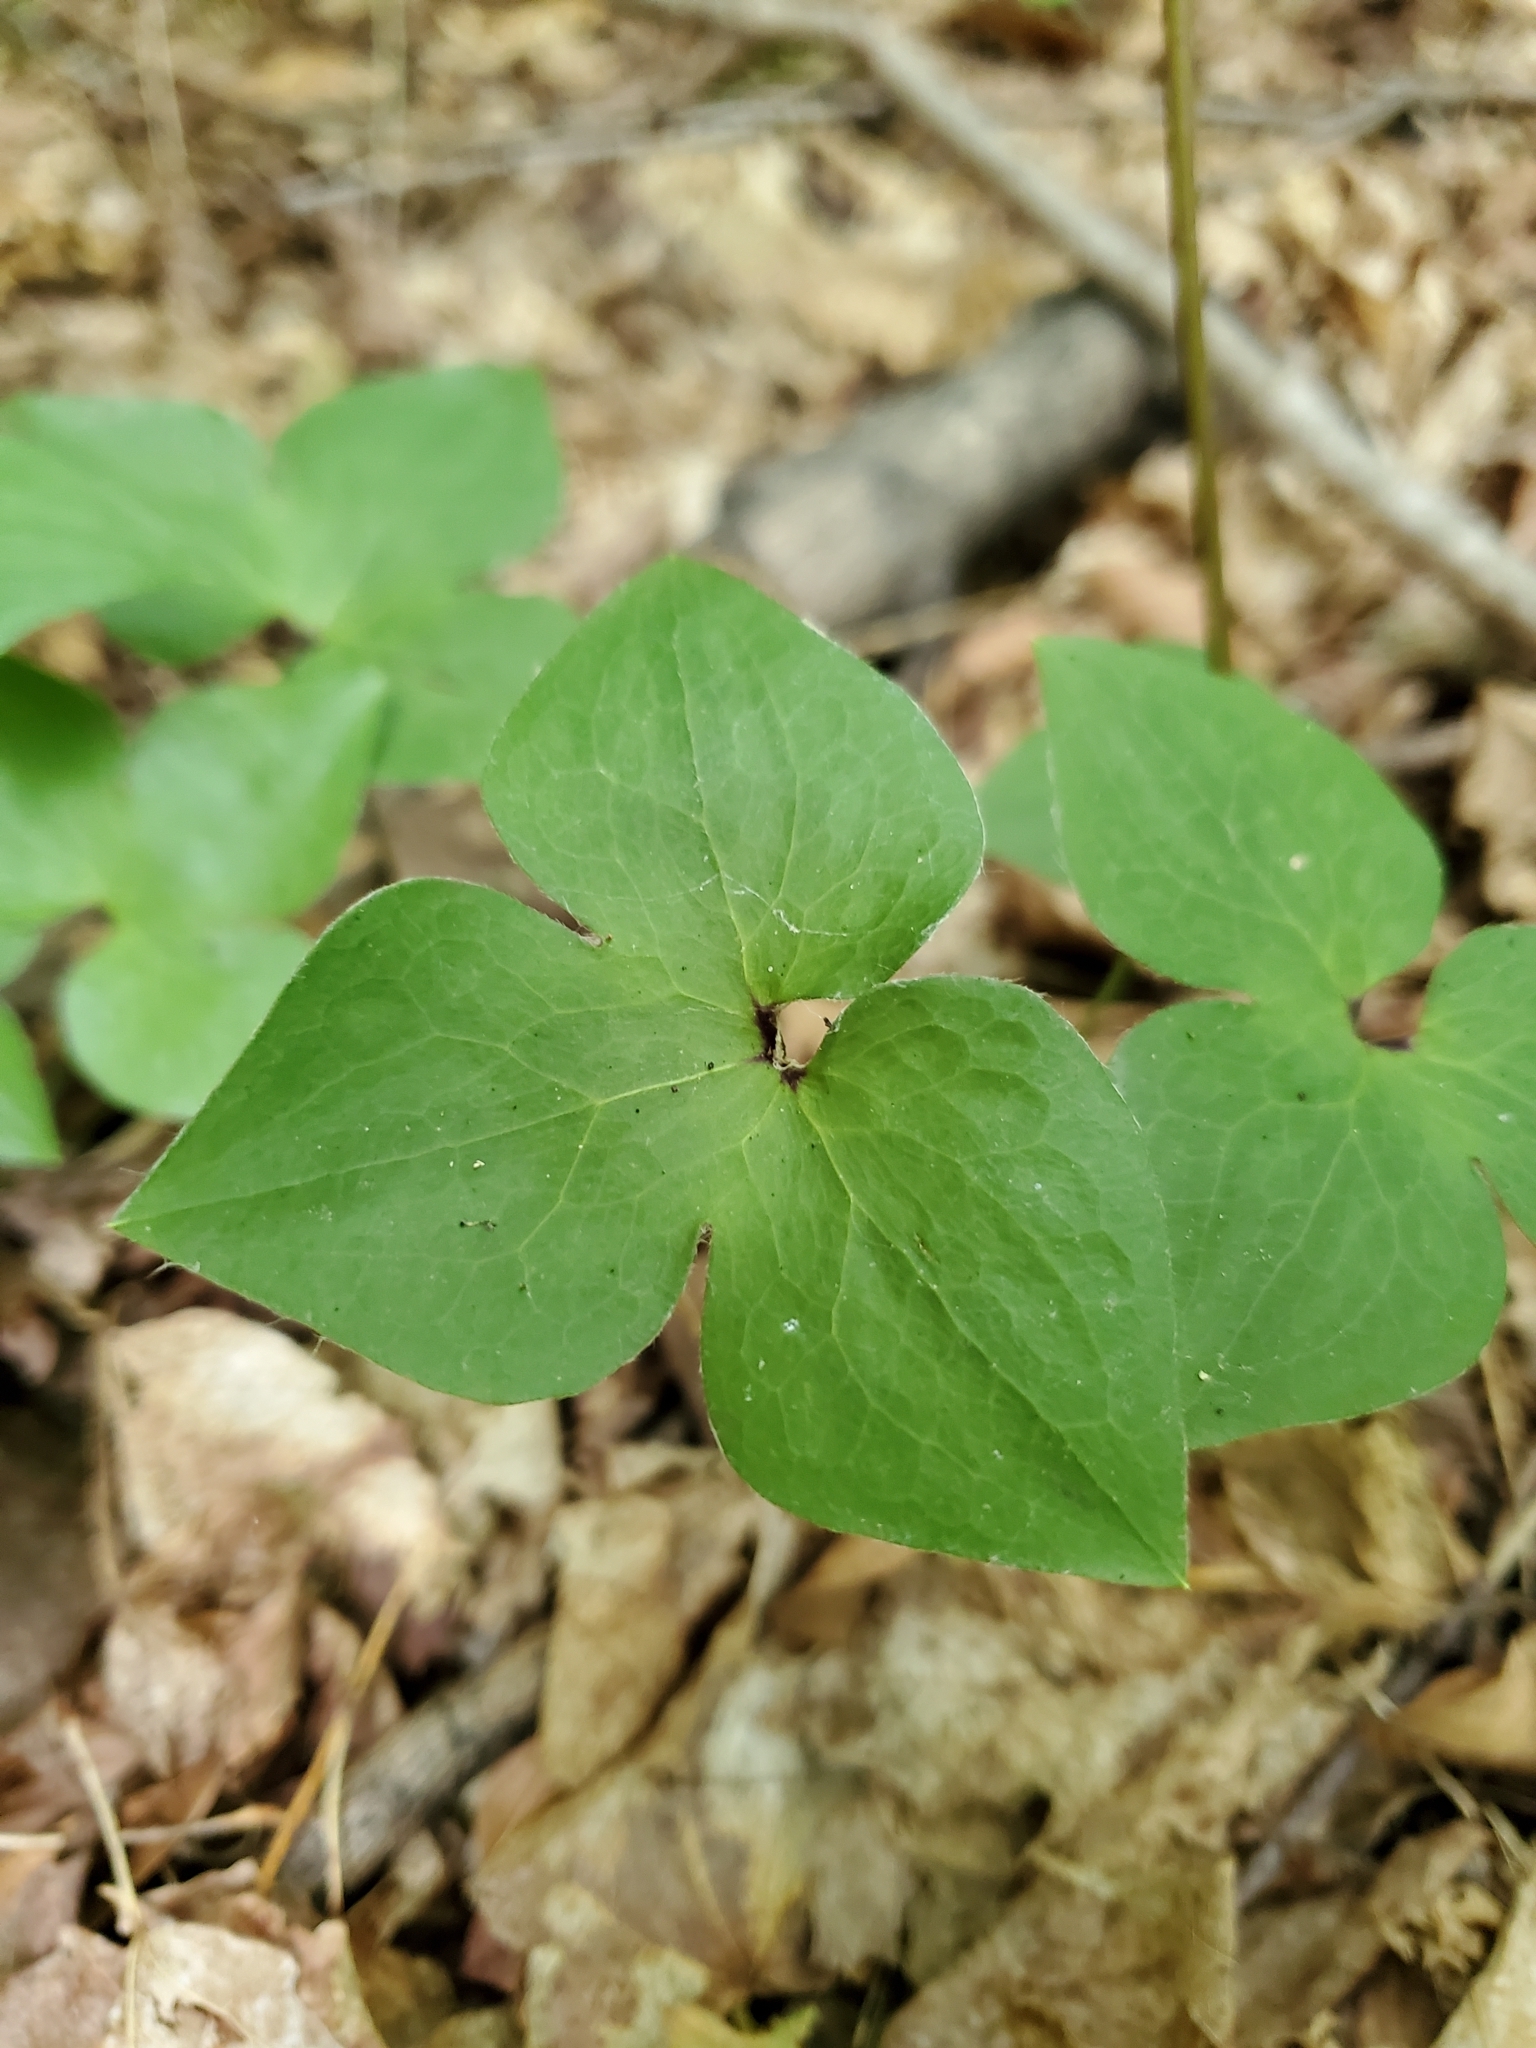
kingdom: Plantae
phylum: Tracheophyta
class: Magnoliopsida
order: Ranunculales
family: Ranunculaceae
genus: Hepatica
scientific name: Hepatica acutiloba
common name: Sharp-lobed hepatica
